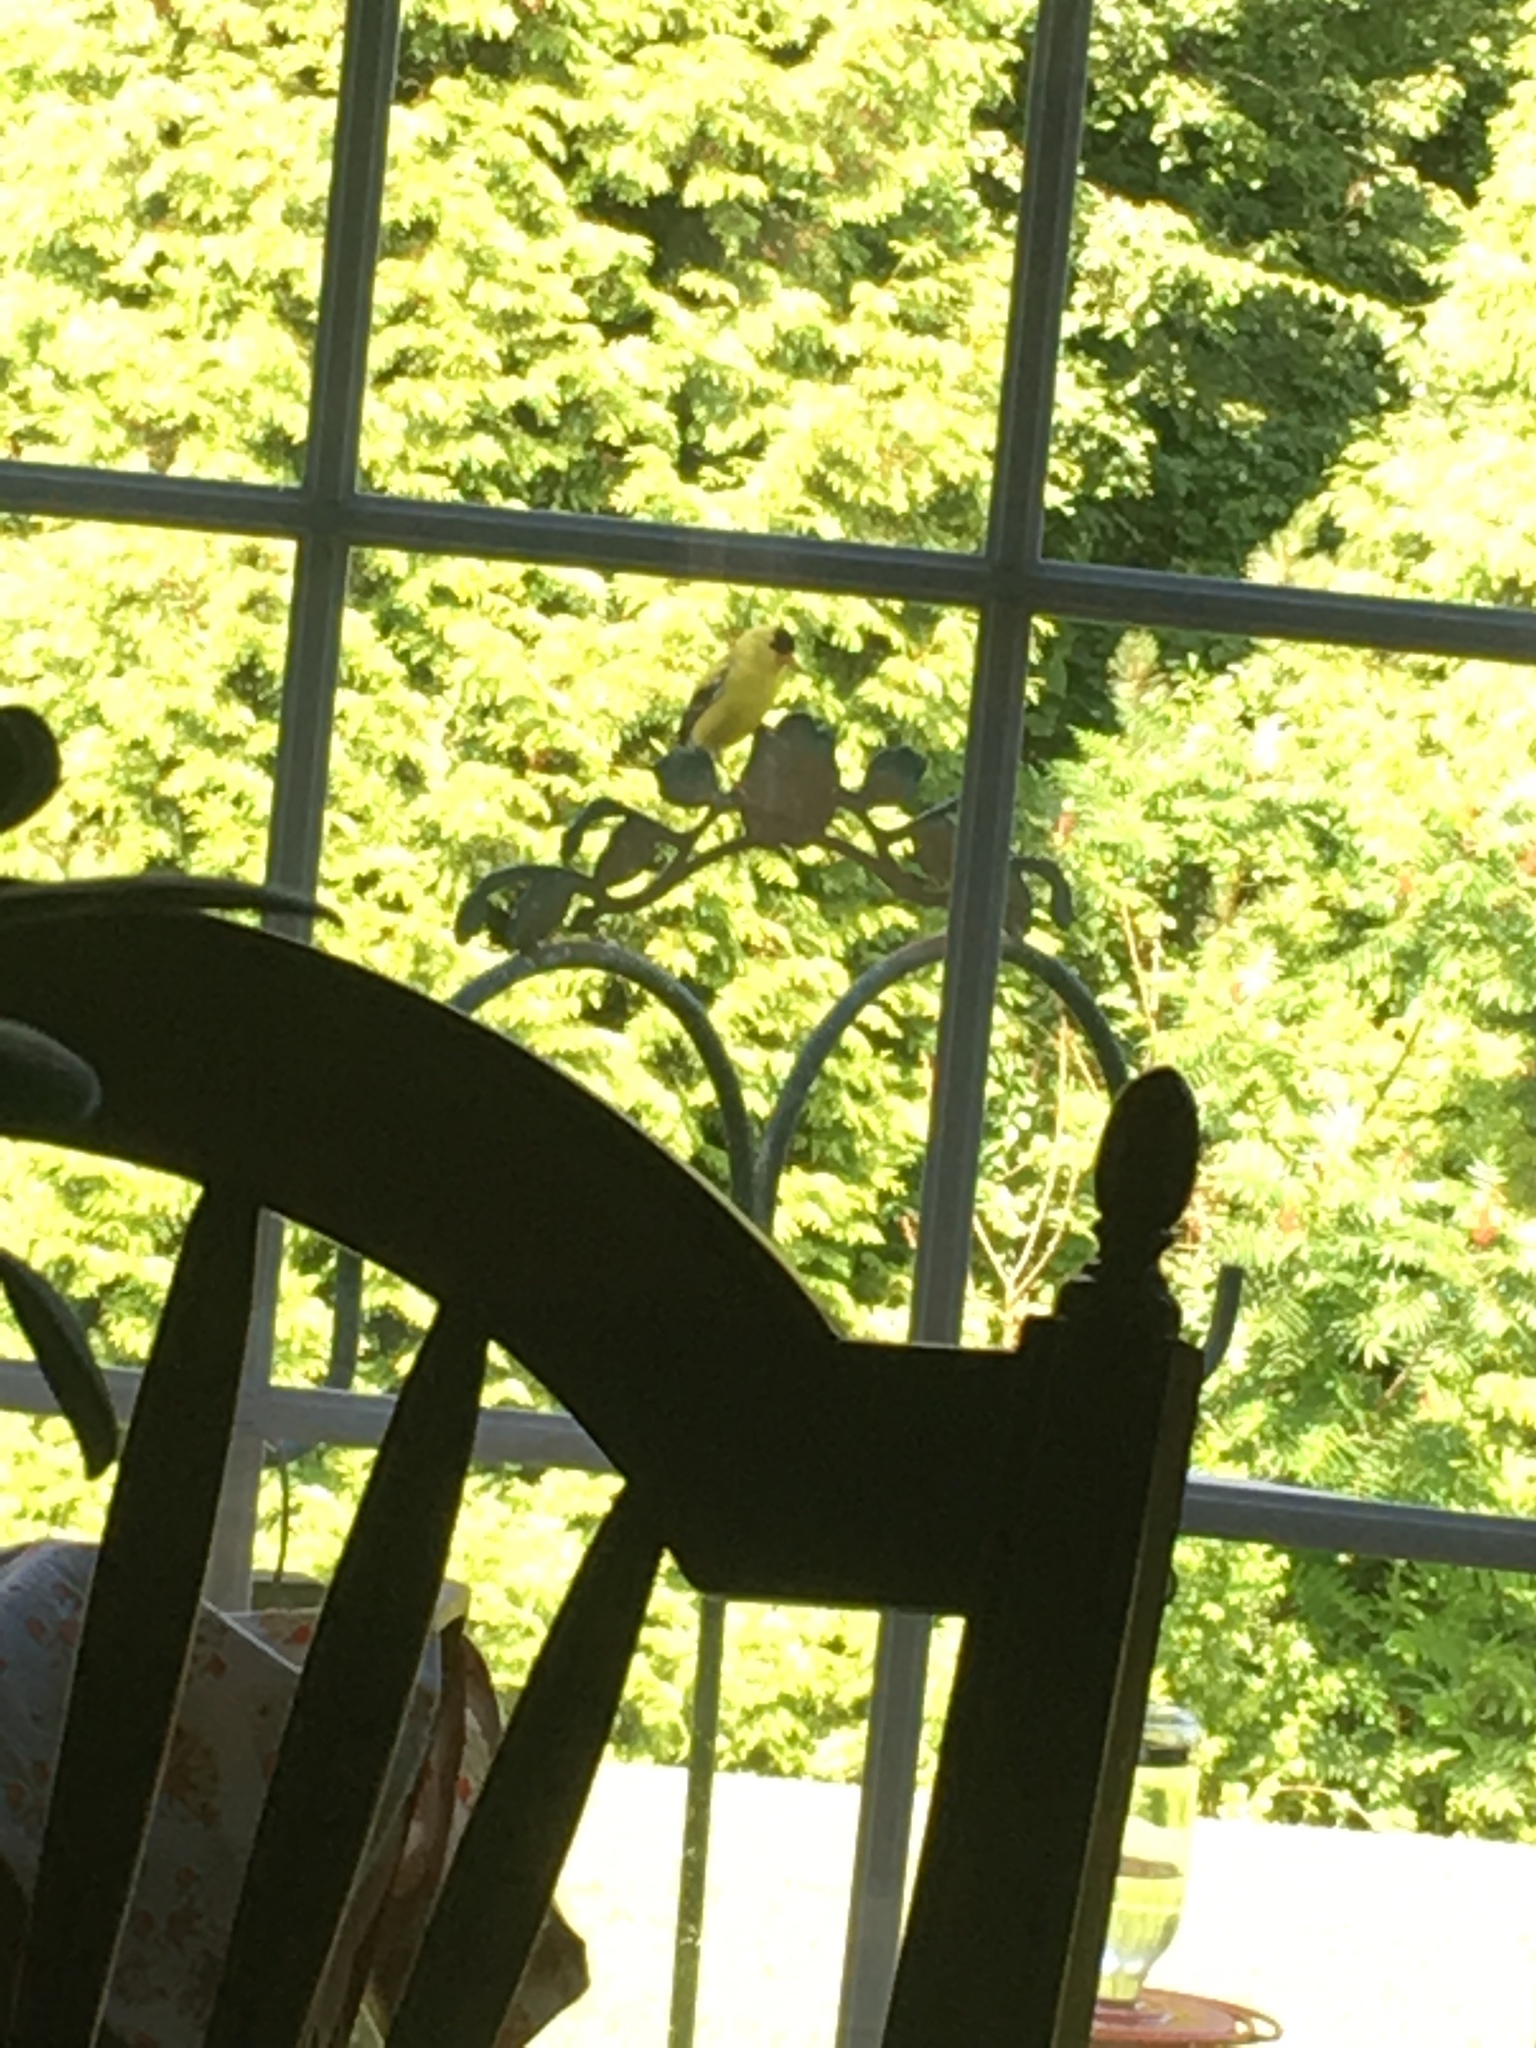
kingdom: Animalia
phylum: Chordata
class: Aves
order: Passeriformes
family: Fringillidae
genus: Spinus
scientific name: Spinus tristis
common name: American goldfinch
